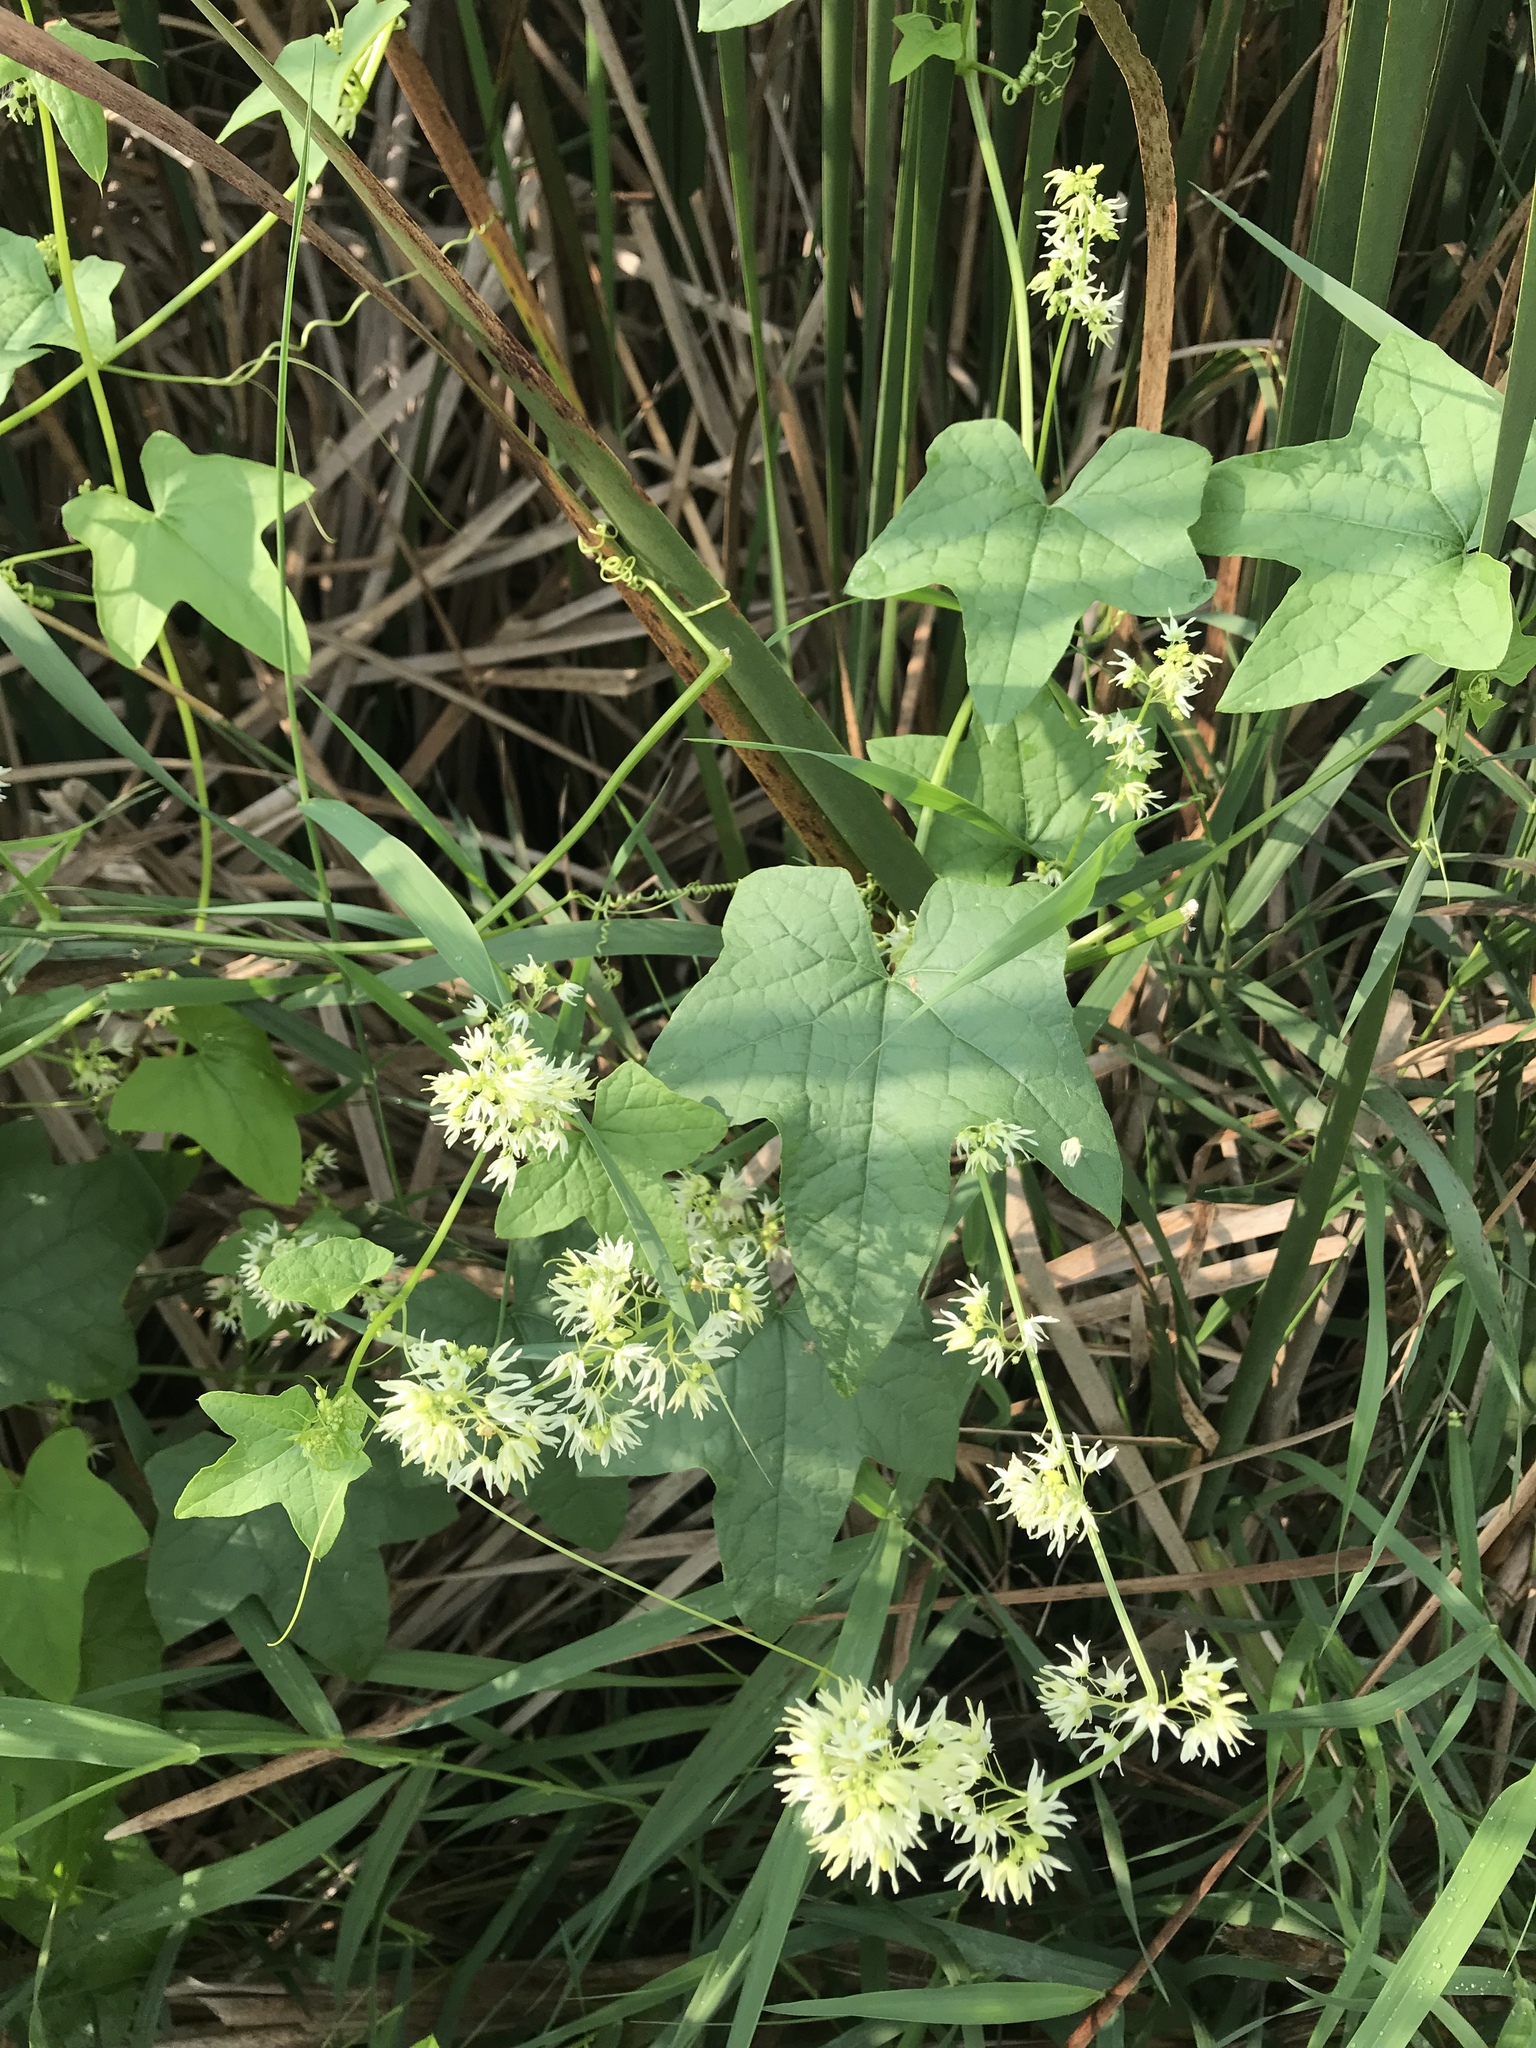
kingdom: Plantae
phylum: Tracheophyta
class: Magnoliopsida
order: Cucurbitales
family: Cucurbitaceae
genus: Echinocystis
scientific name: Echinocystis lobata
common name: Wild cucumber
